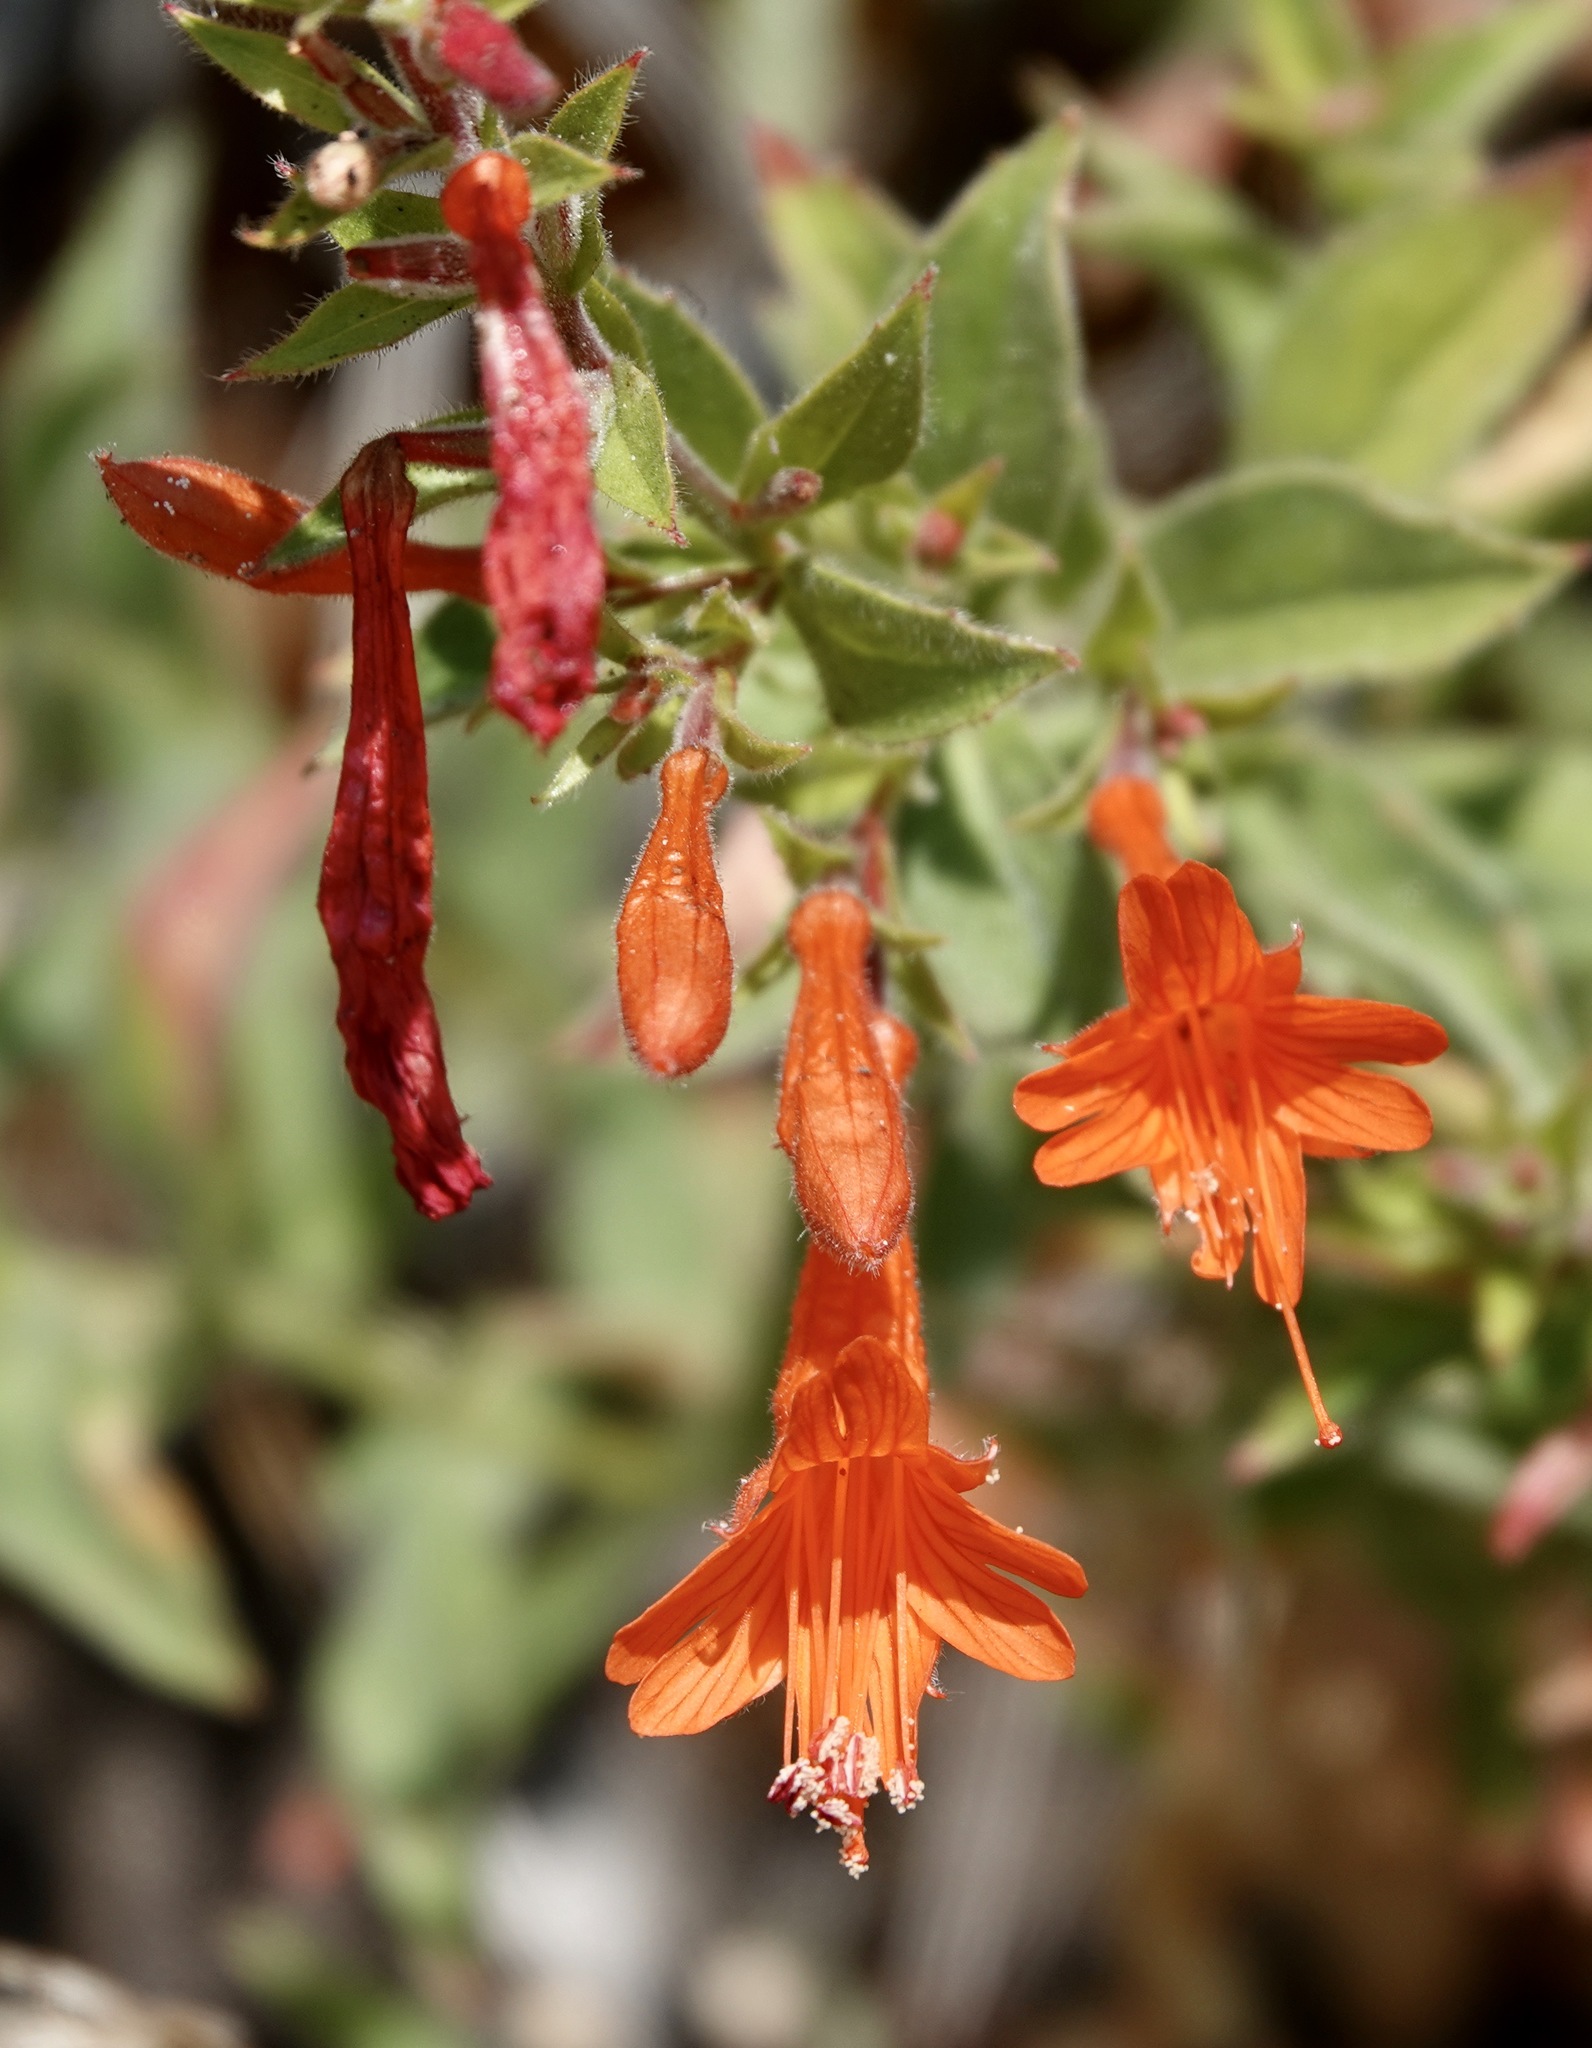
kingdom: Plantae
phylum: Tracheophyta
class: Magnoliopsida
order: Myrtales
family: Onagraceae
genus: Epilobium
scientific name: Epilobium canum
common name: California-fuchsia
